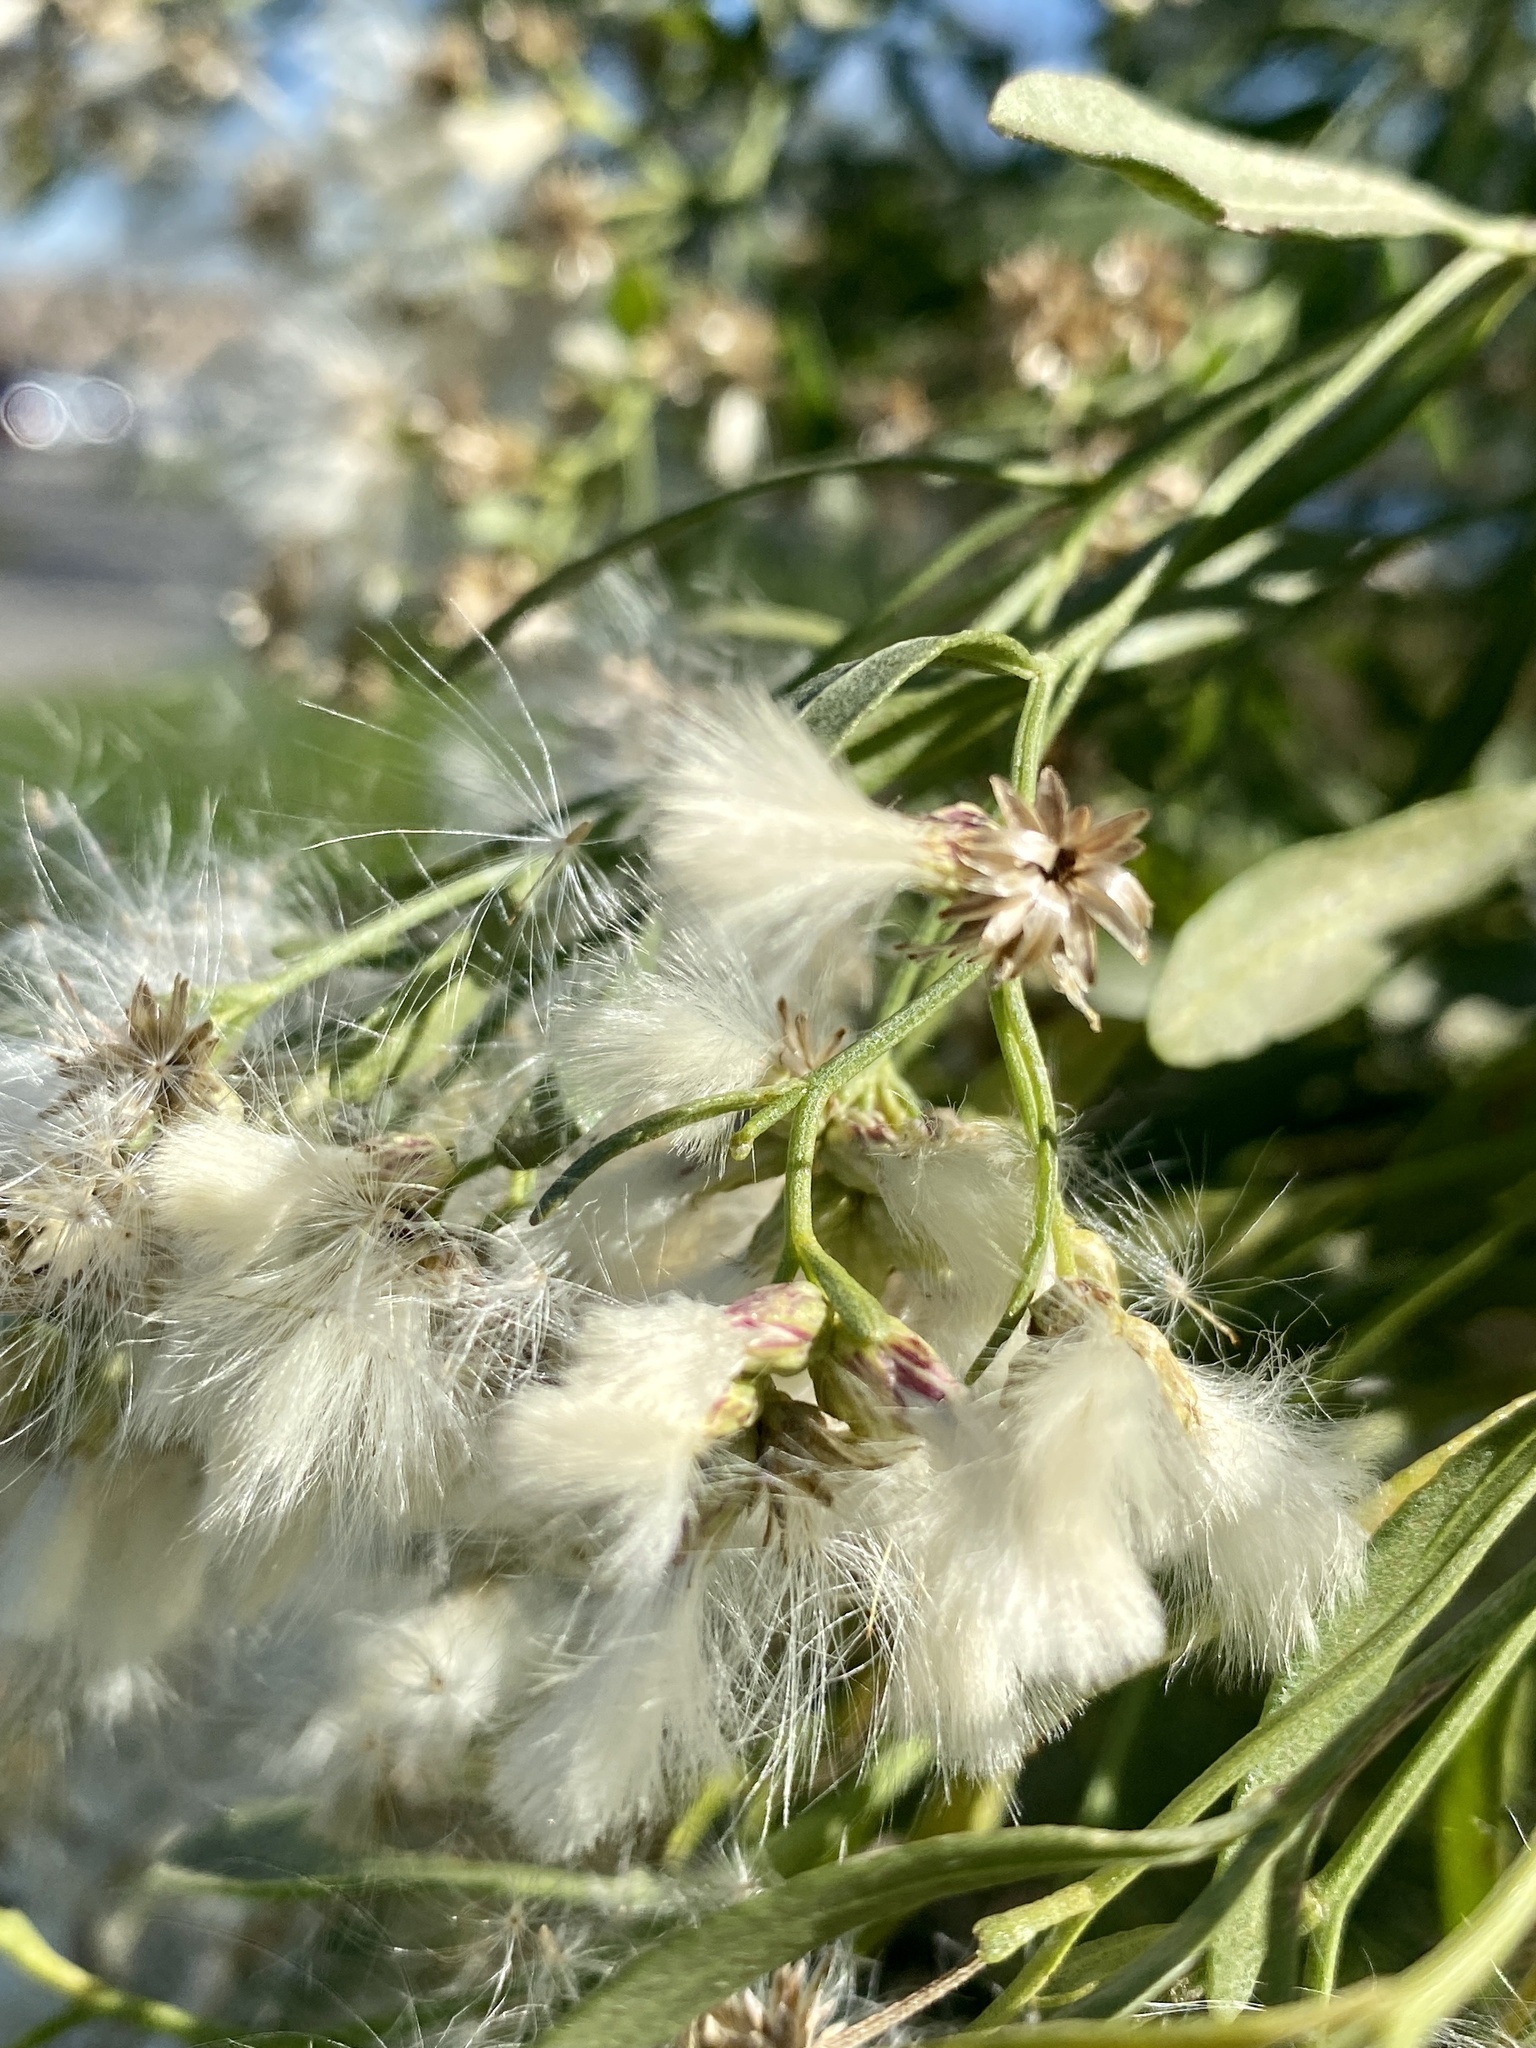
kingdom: Plantae
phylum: Tracheophyta
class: Magnoliopsida
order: Asterales
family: Asteraceae
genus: Baccharis
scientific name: Baccharis halimifolia
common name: Eastern baccharis
